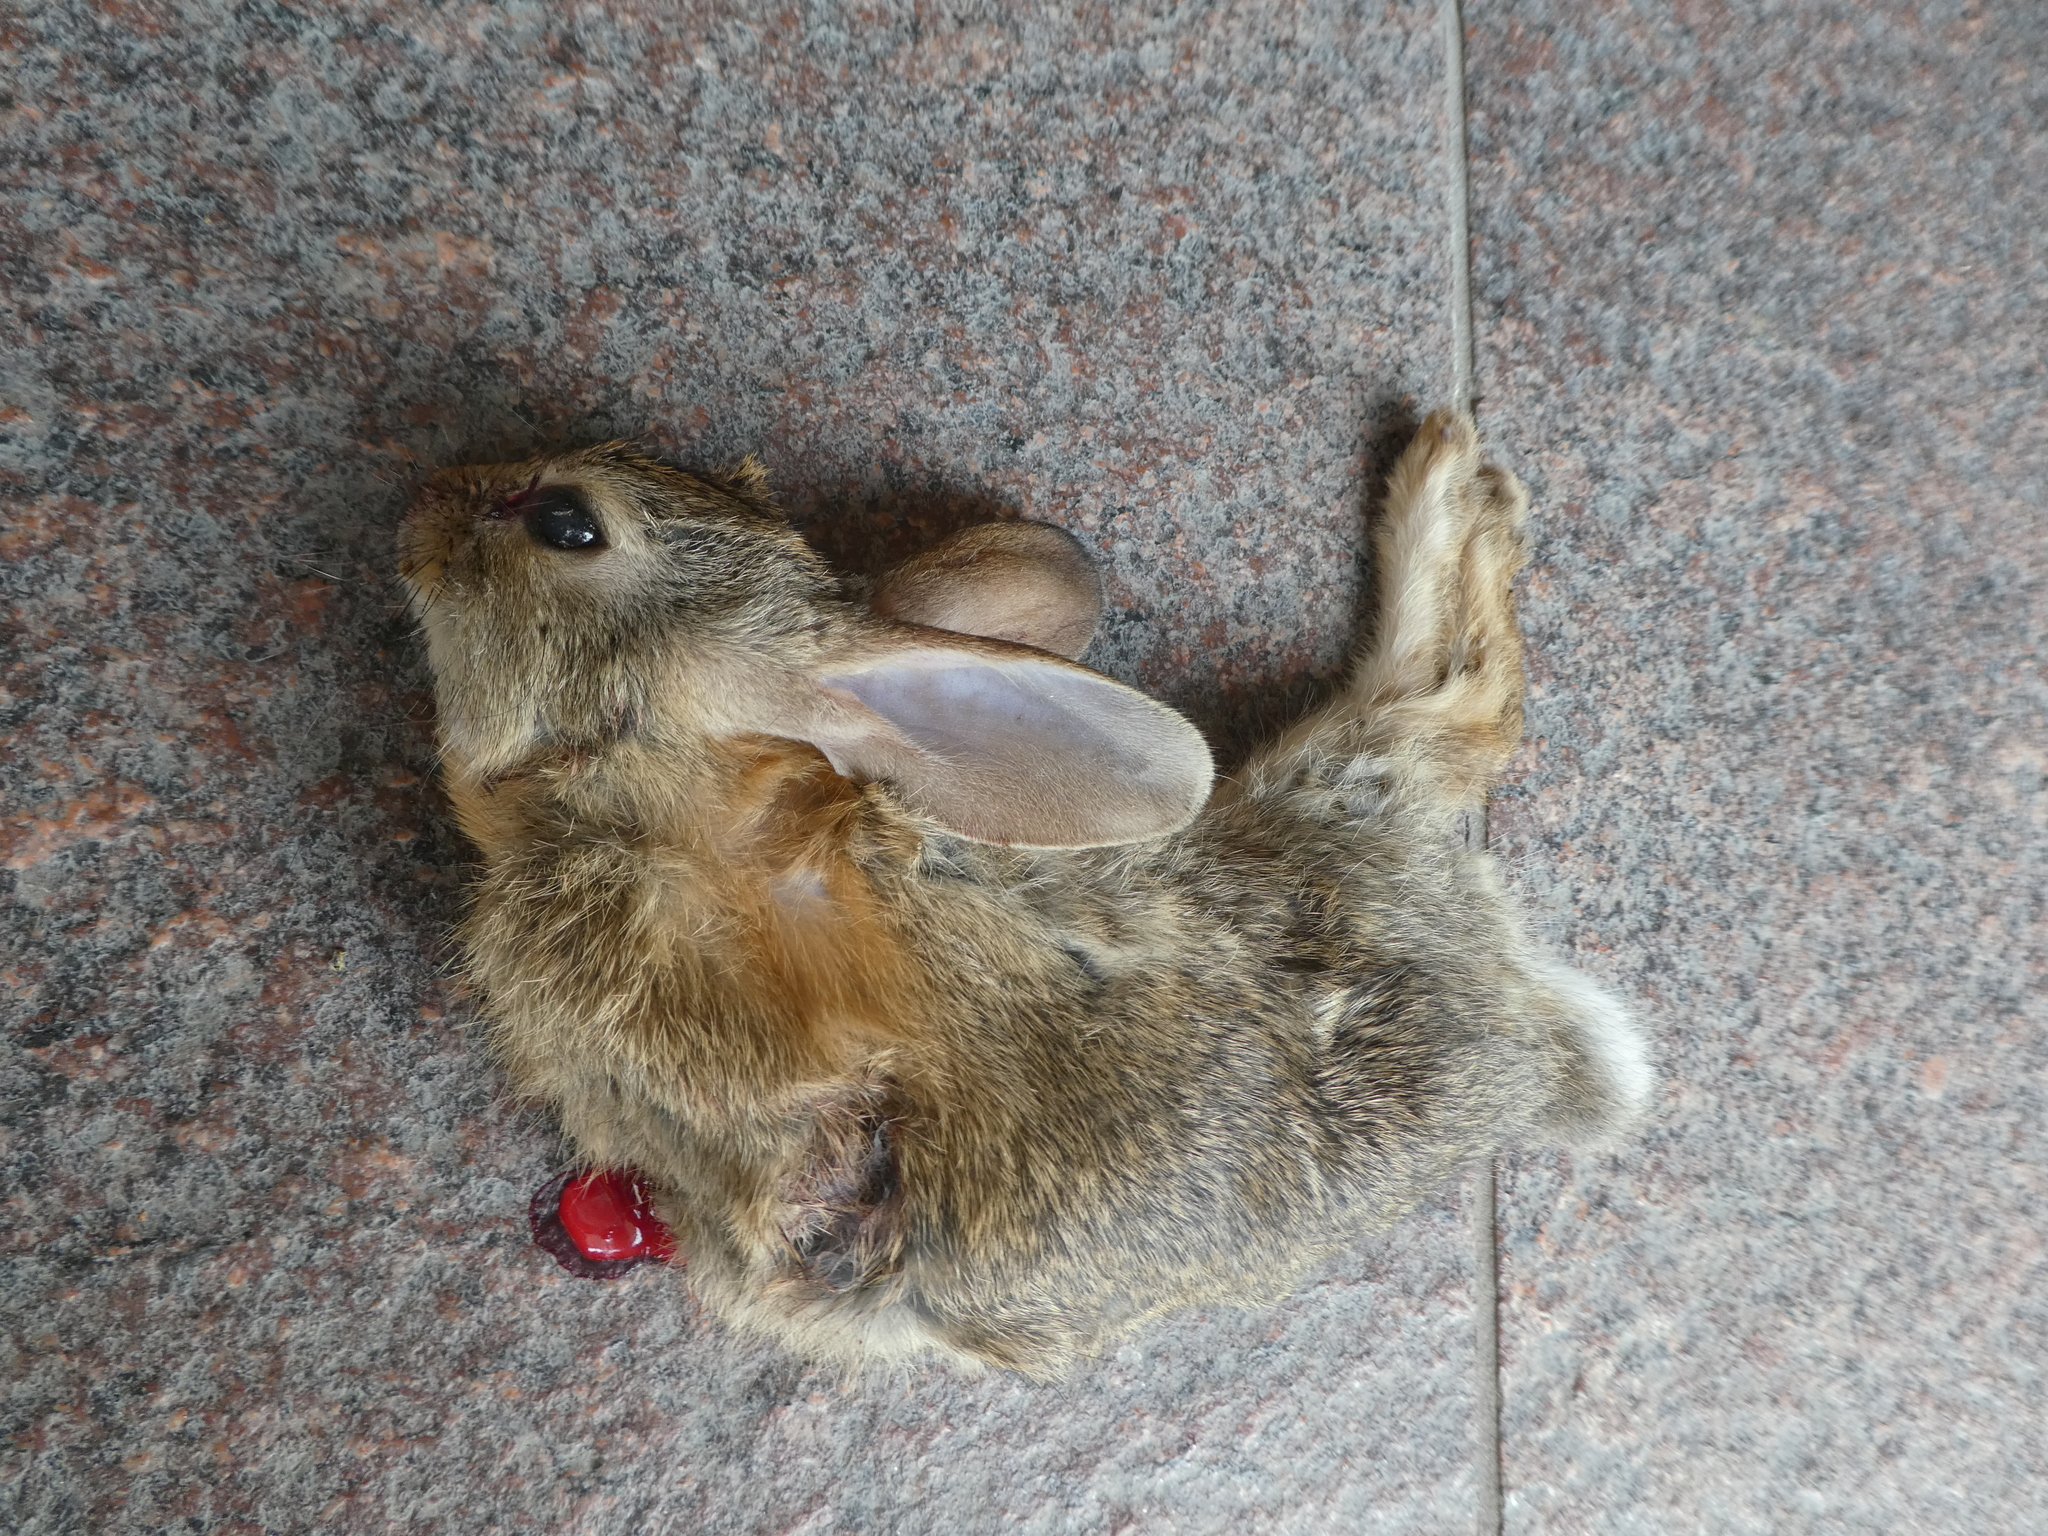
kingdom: Animalia
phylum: Chordata
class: Mammalia
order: Lagomorpha
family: Leporidae
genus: Sylvilagus
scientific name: Sylvilagus audubonii
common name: Desert cottontail
